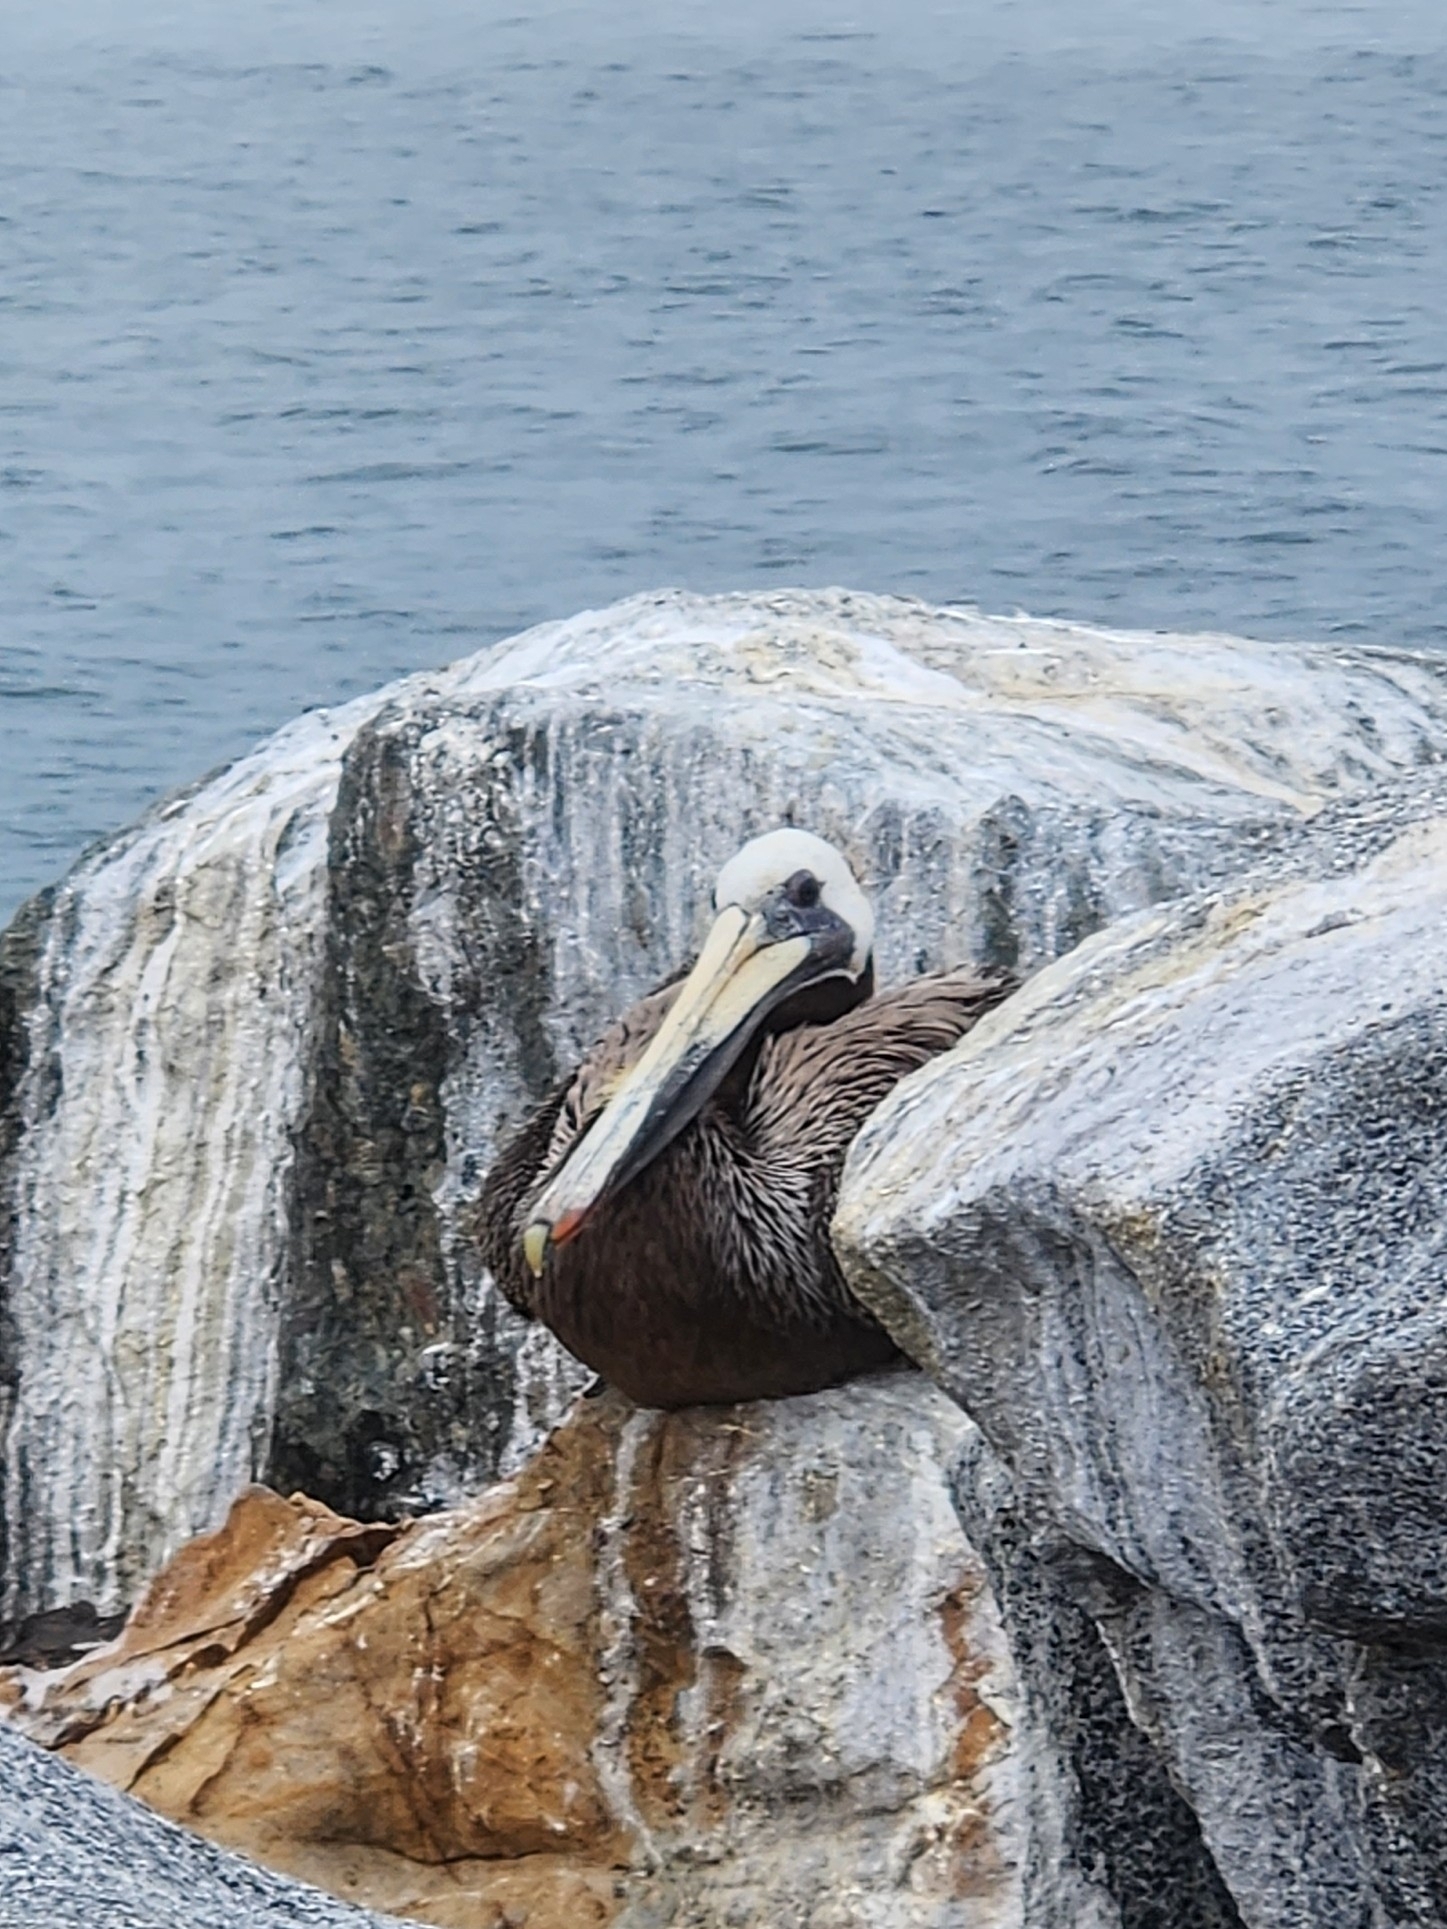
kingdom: Animalia
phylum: Chordata
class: Aves
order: Pelecaniformes
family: Pelecanidae
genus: Pelecanus
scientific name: Pelecanus occidentalis
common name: Brown pelican
